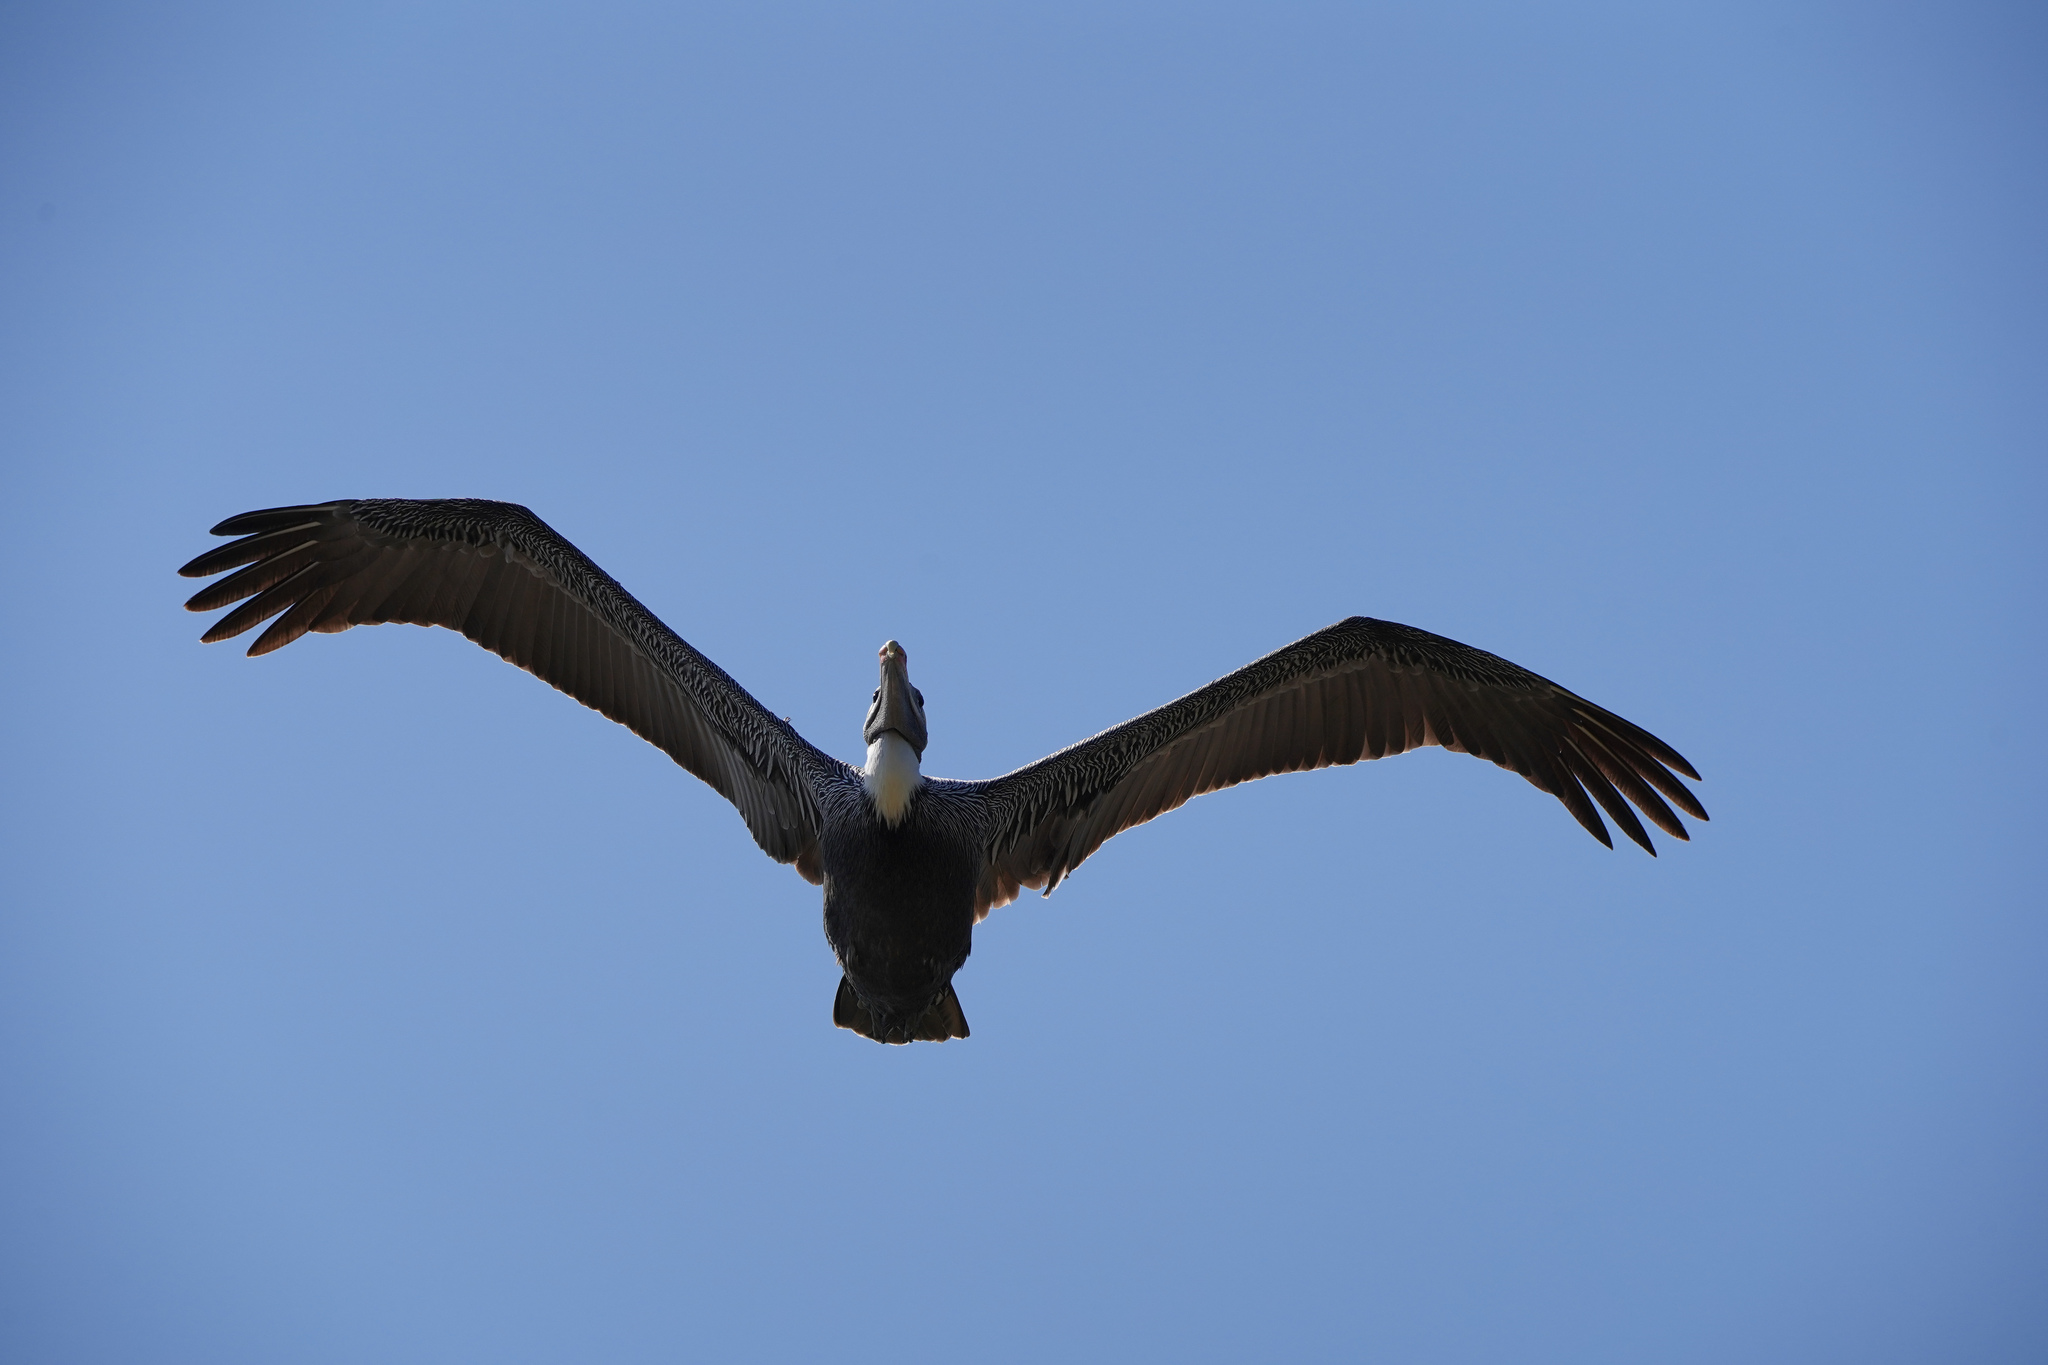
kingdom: Animalia
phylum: Chordata
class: Aves
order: Pelecaniformes
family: Pelecanidae
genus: Pelecanus
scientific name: Pelecanus occidentalis
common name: Brown pelican
